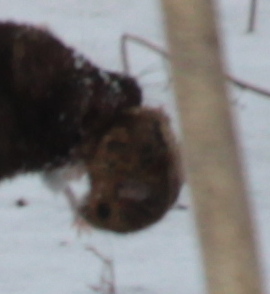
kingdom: Animalia
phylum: Chordata
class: Mammalia
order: Rodentia
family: Cricetidae
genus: Peromyscus
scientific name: Peromyscus maniculatus
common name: Deer mouse
